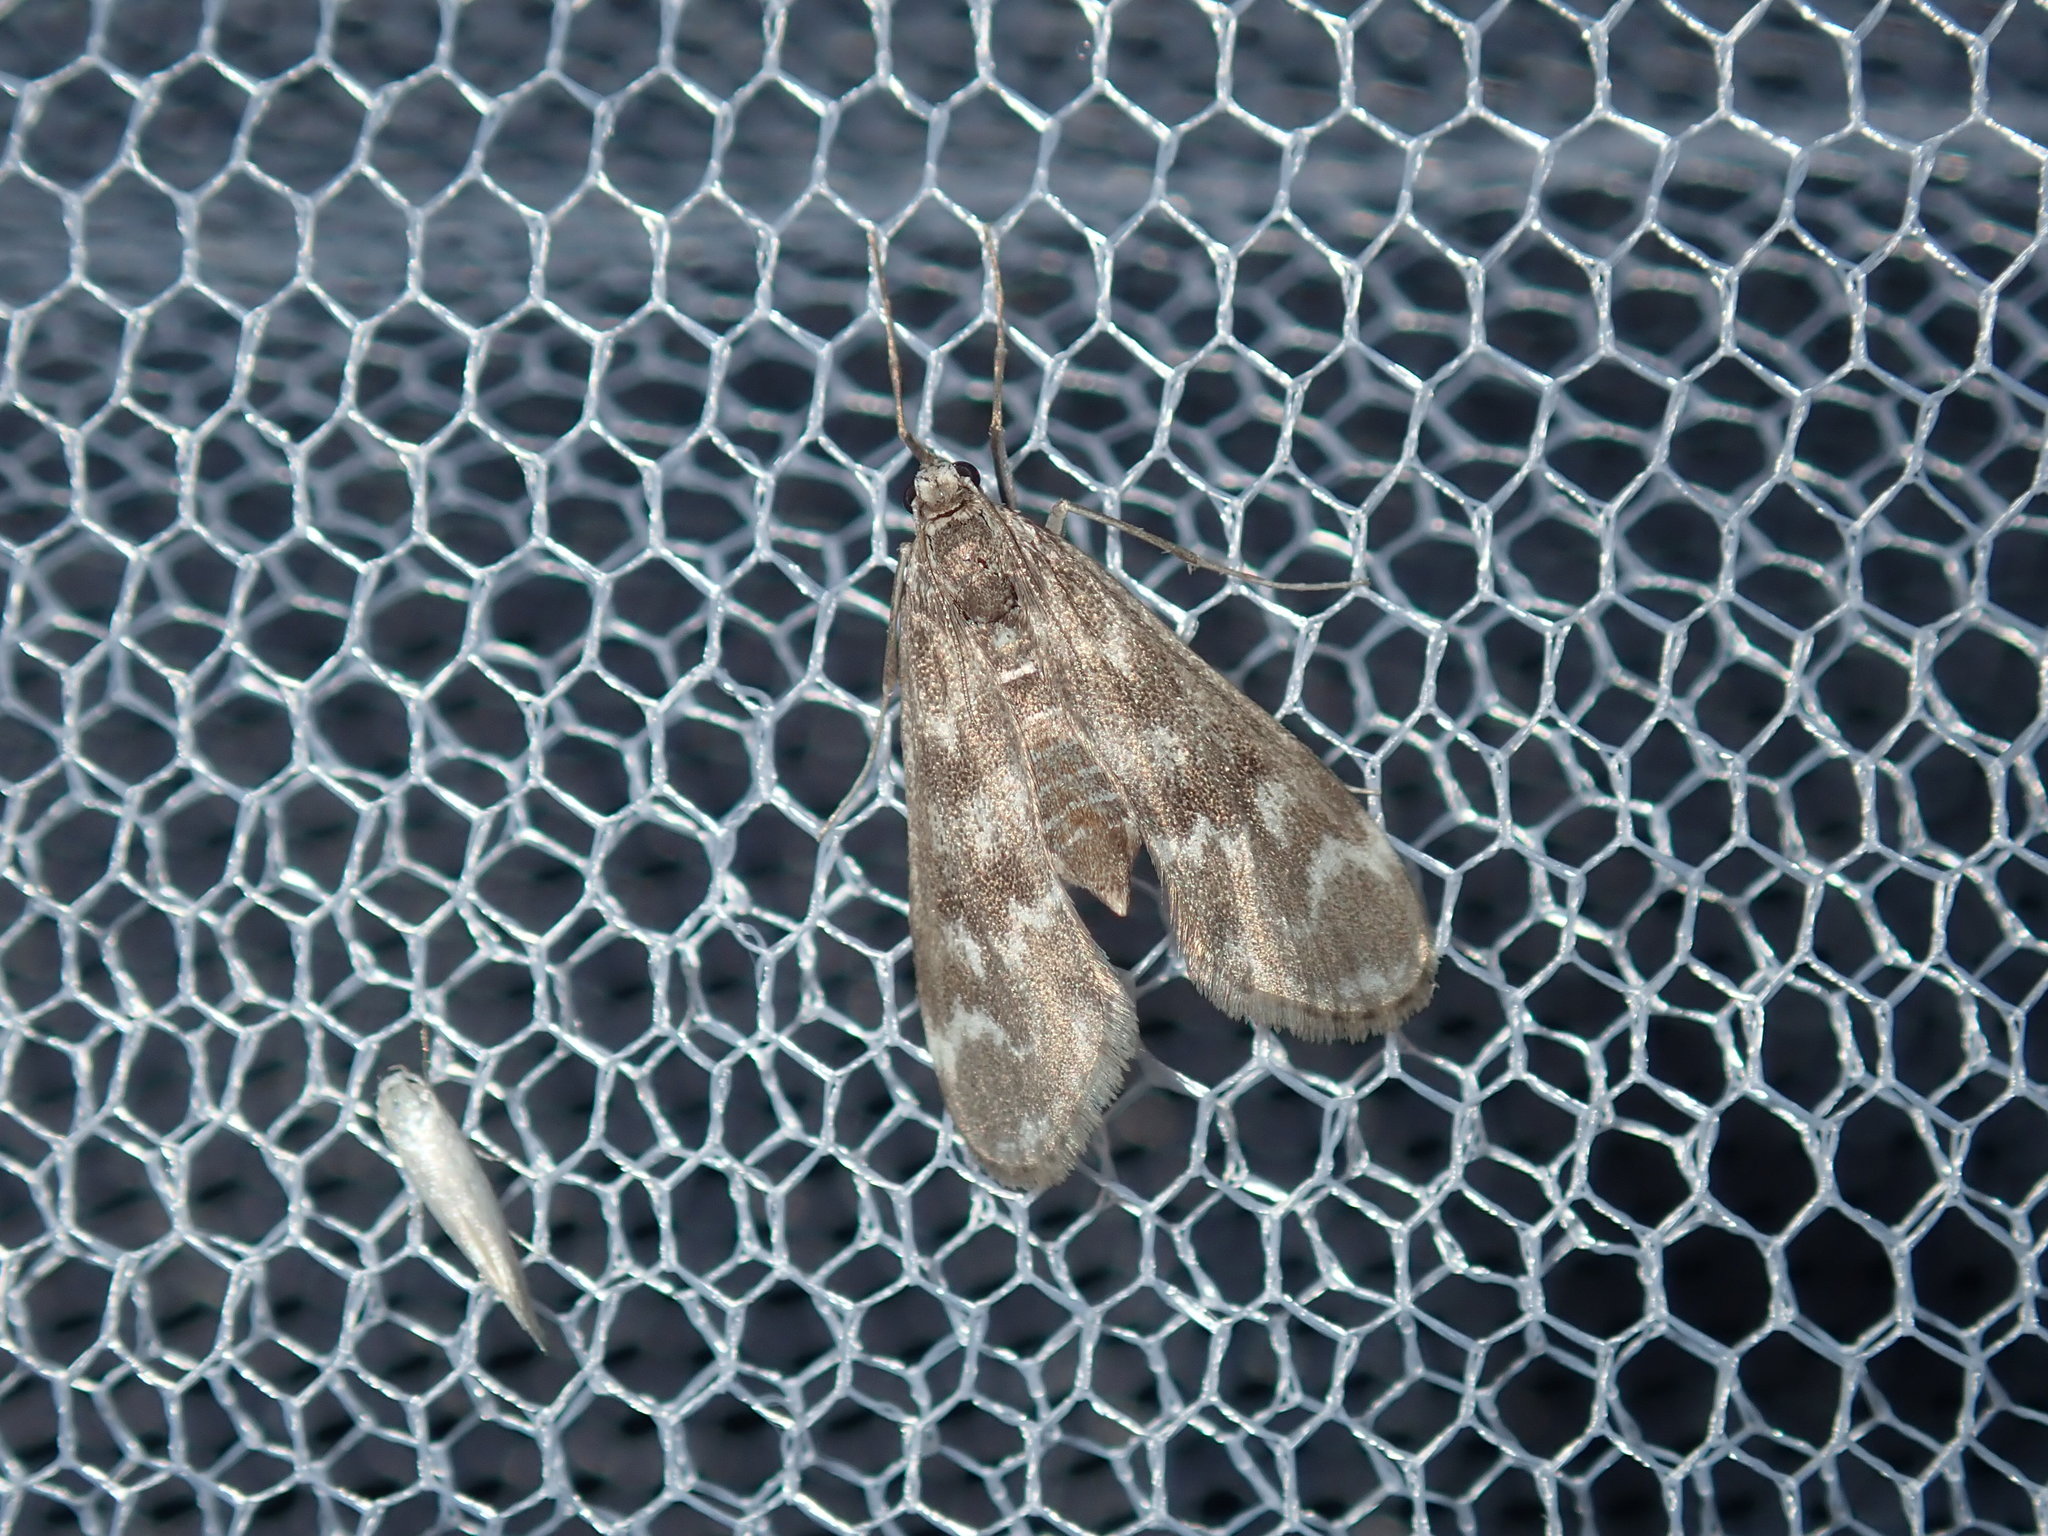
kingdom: Animalia
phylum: Arthropoda
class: Insecta
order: Lepidoptera
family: Crambidae
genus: Hygraula
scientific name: Hygraula nitens
